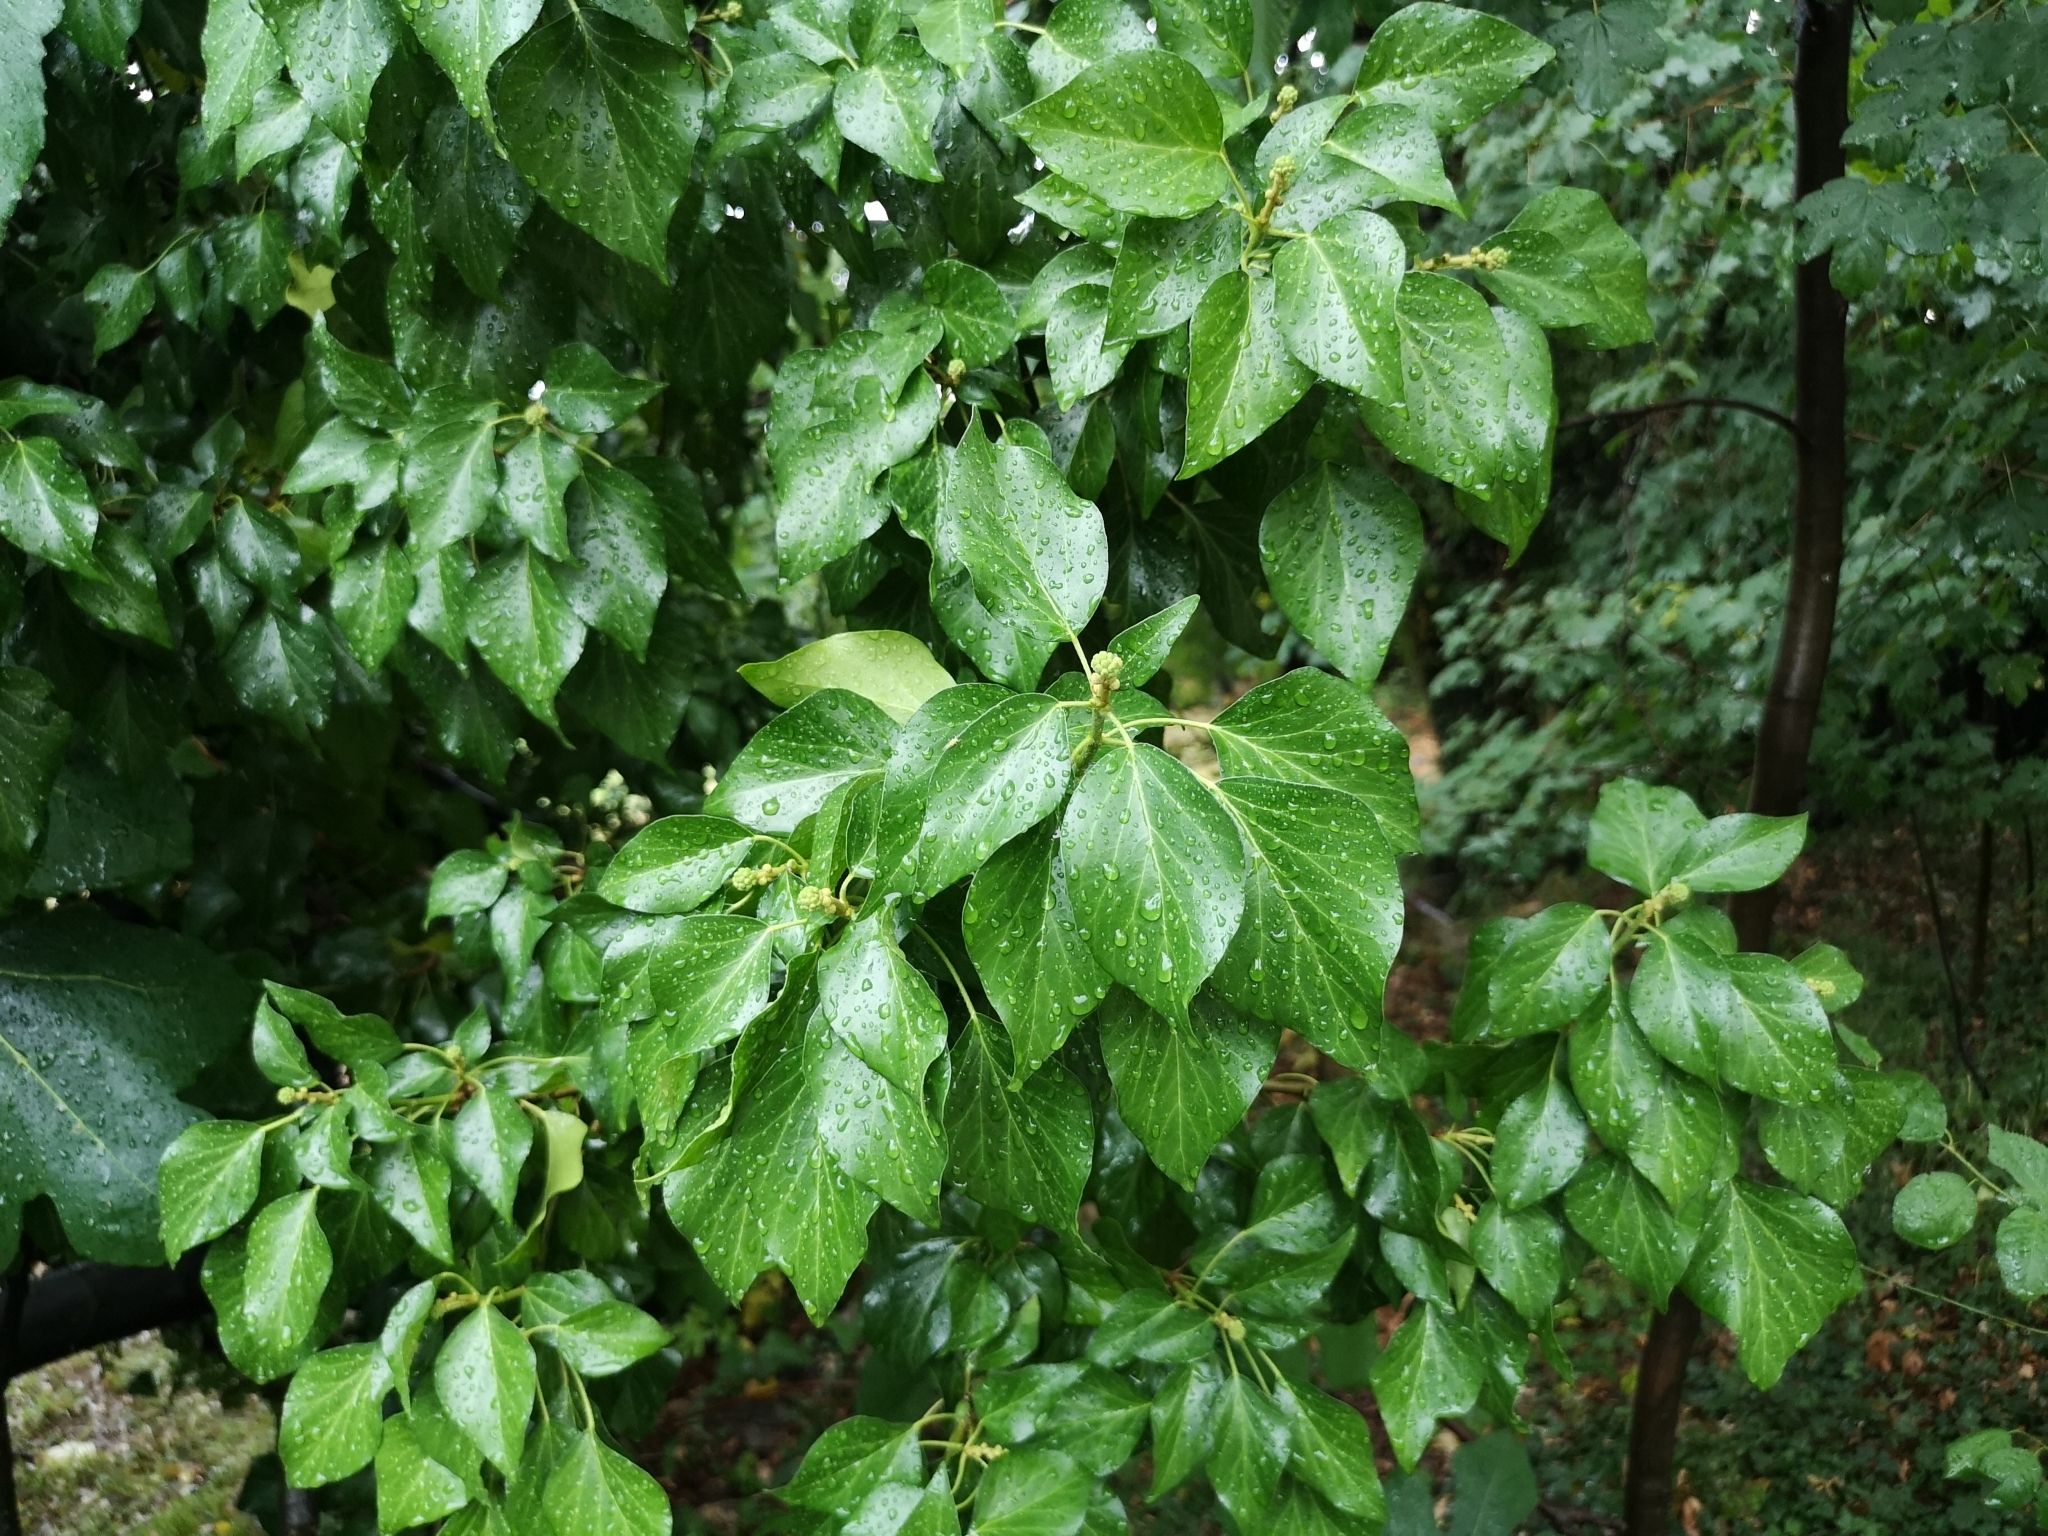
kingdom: Plantae
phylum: Tracheophyta
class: Magnoliopsida
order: Apiales
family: Araliaceae
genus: Hedera
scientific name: Hedera helix
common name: Ivy
